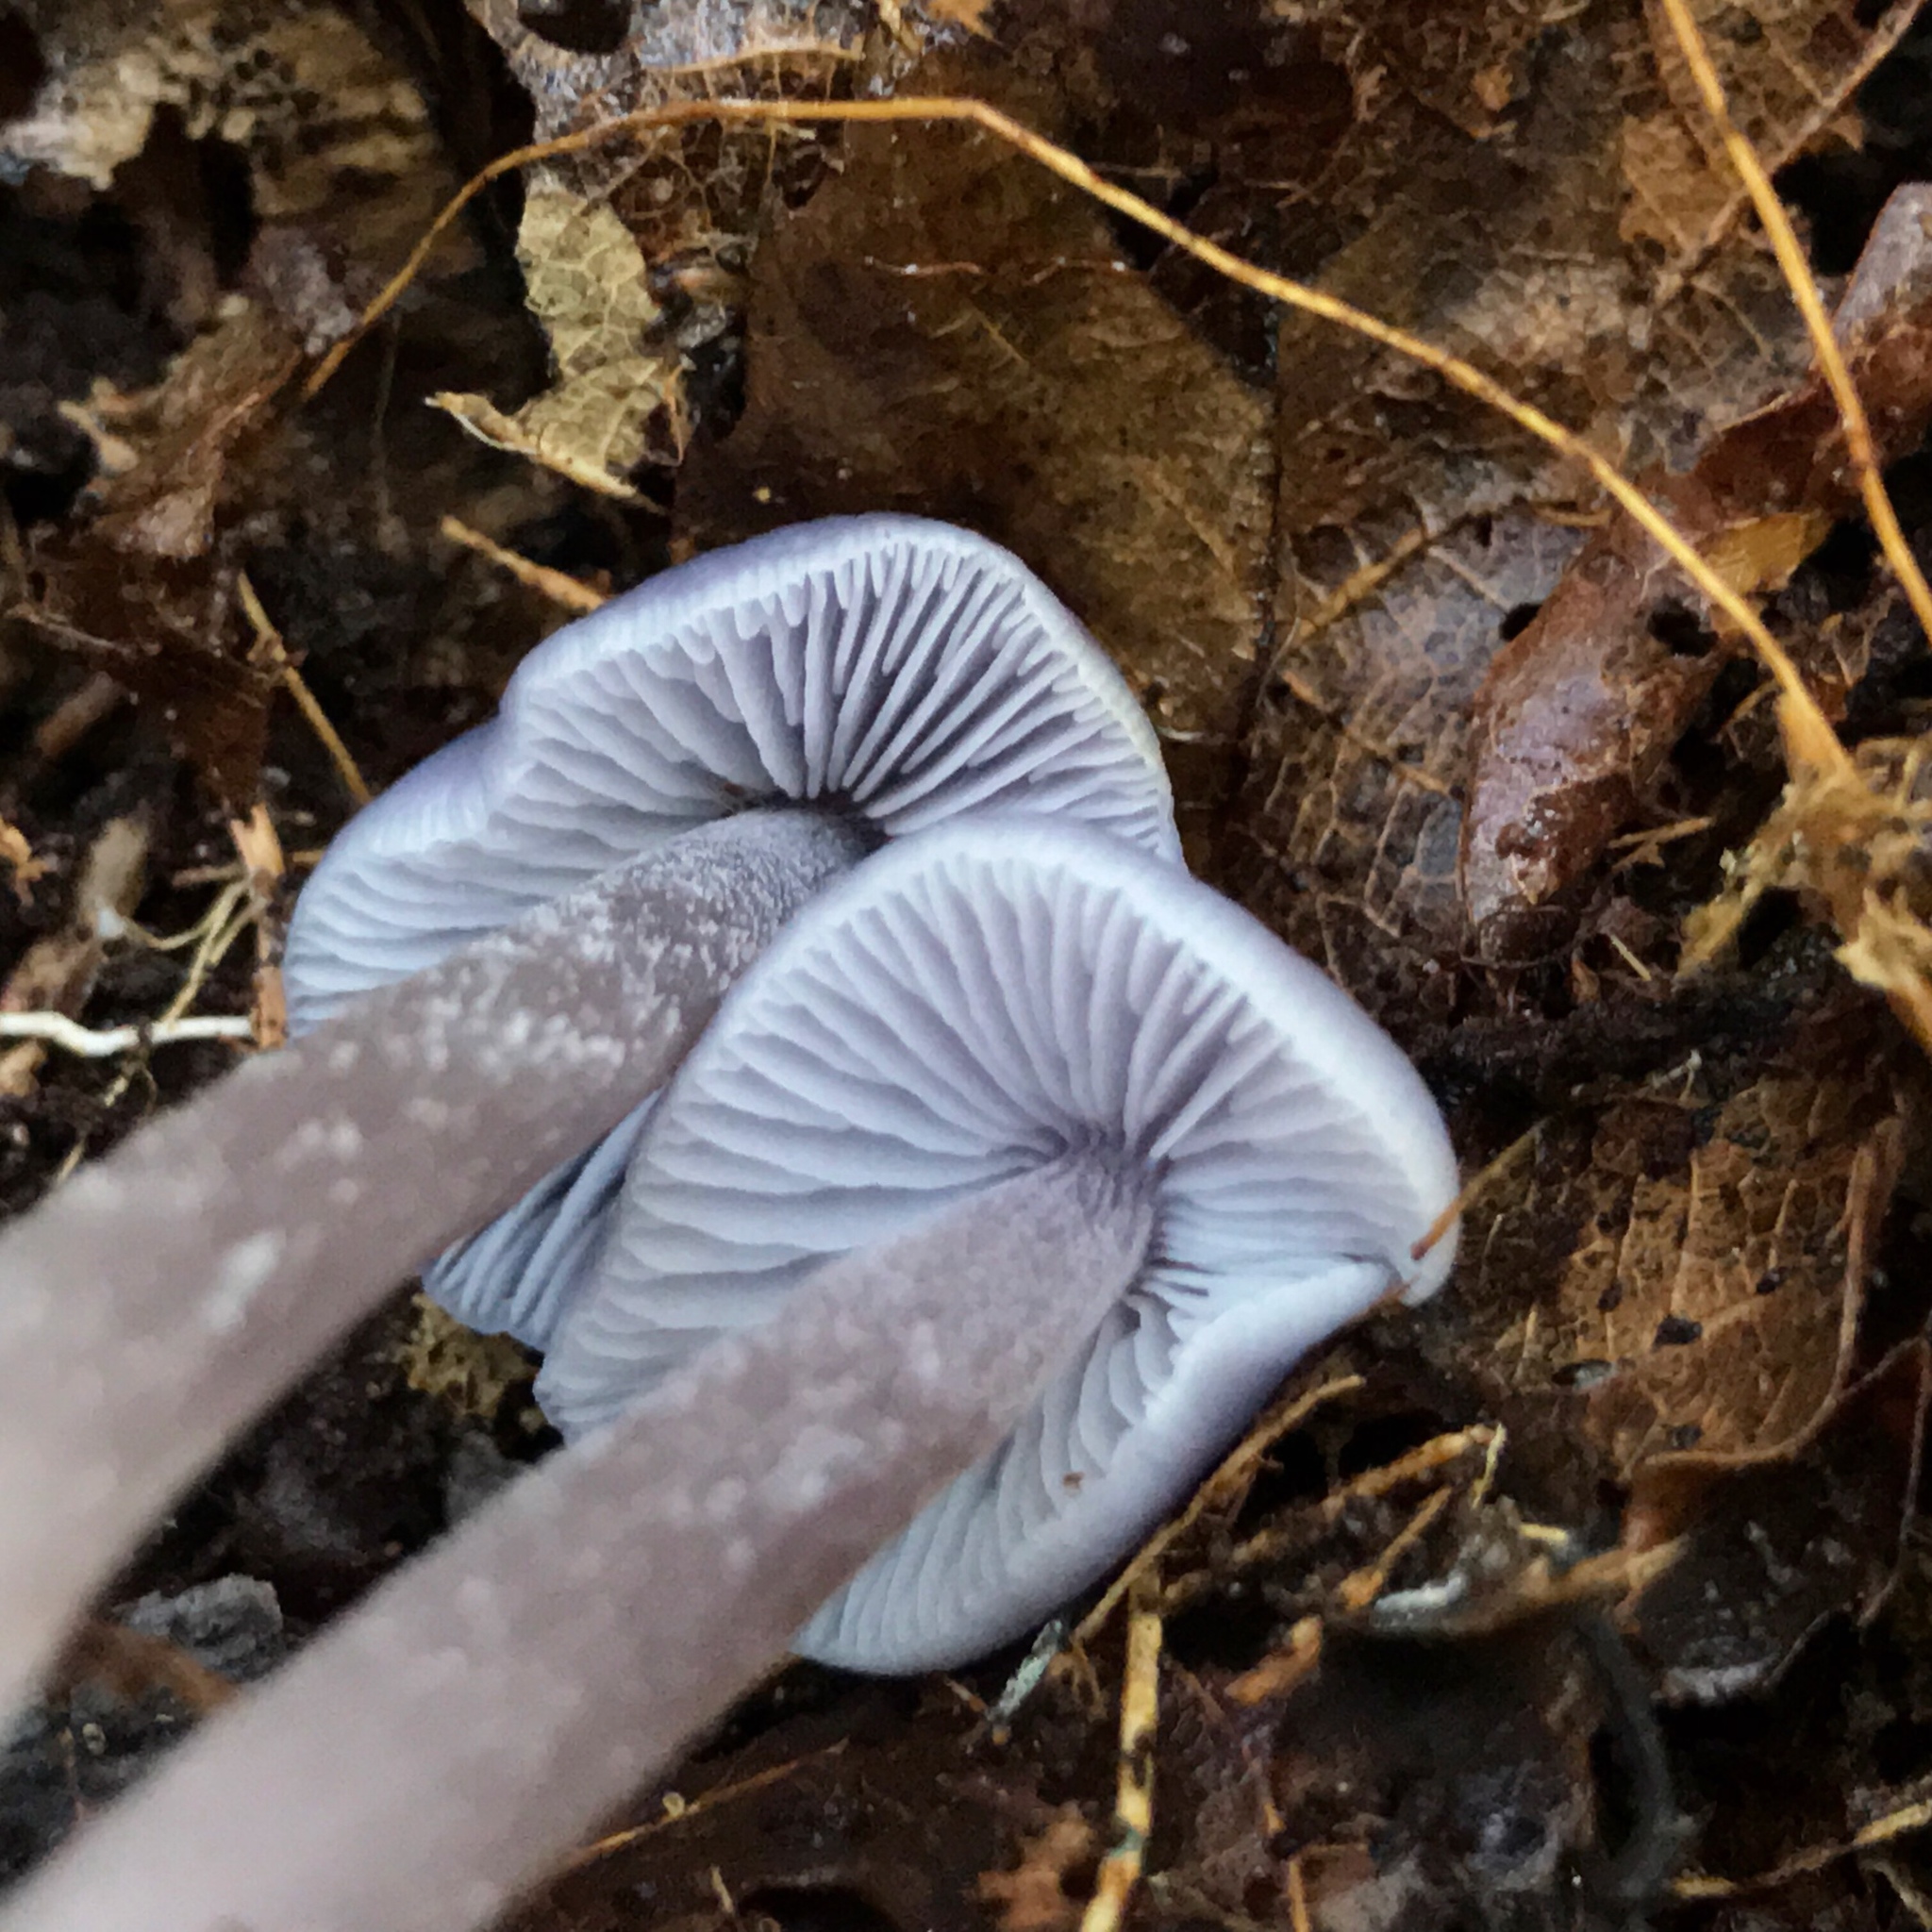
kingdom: Fungi
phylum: Basidiomycota
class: Agaricomycetes
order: Agaricales
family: Mycenaceae
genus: Mycena
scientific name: Mycena pura
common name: Lilac bonnet
